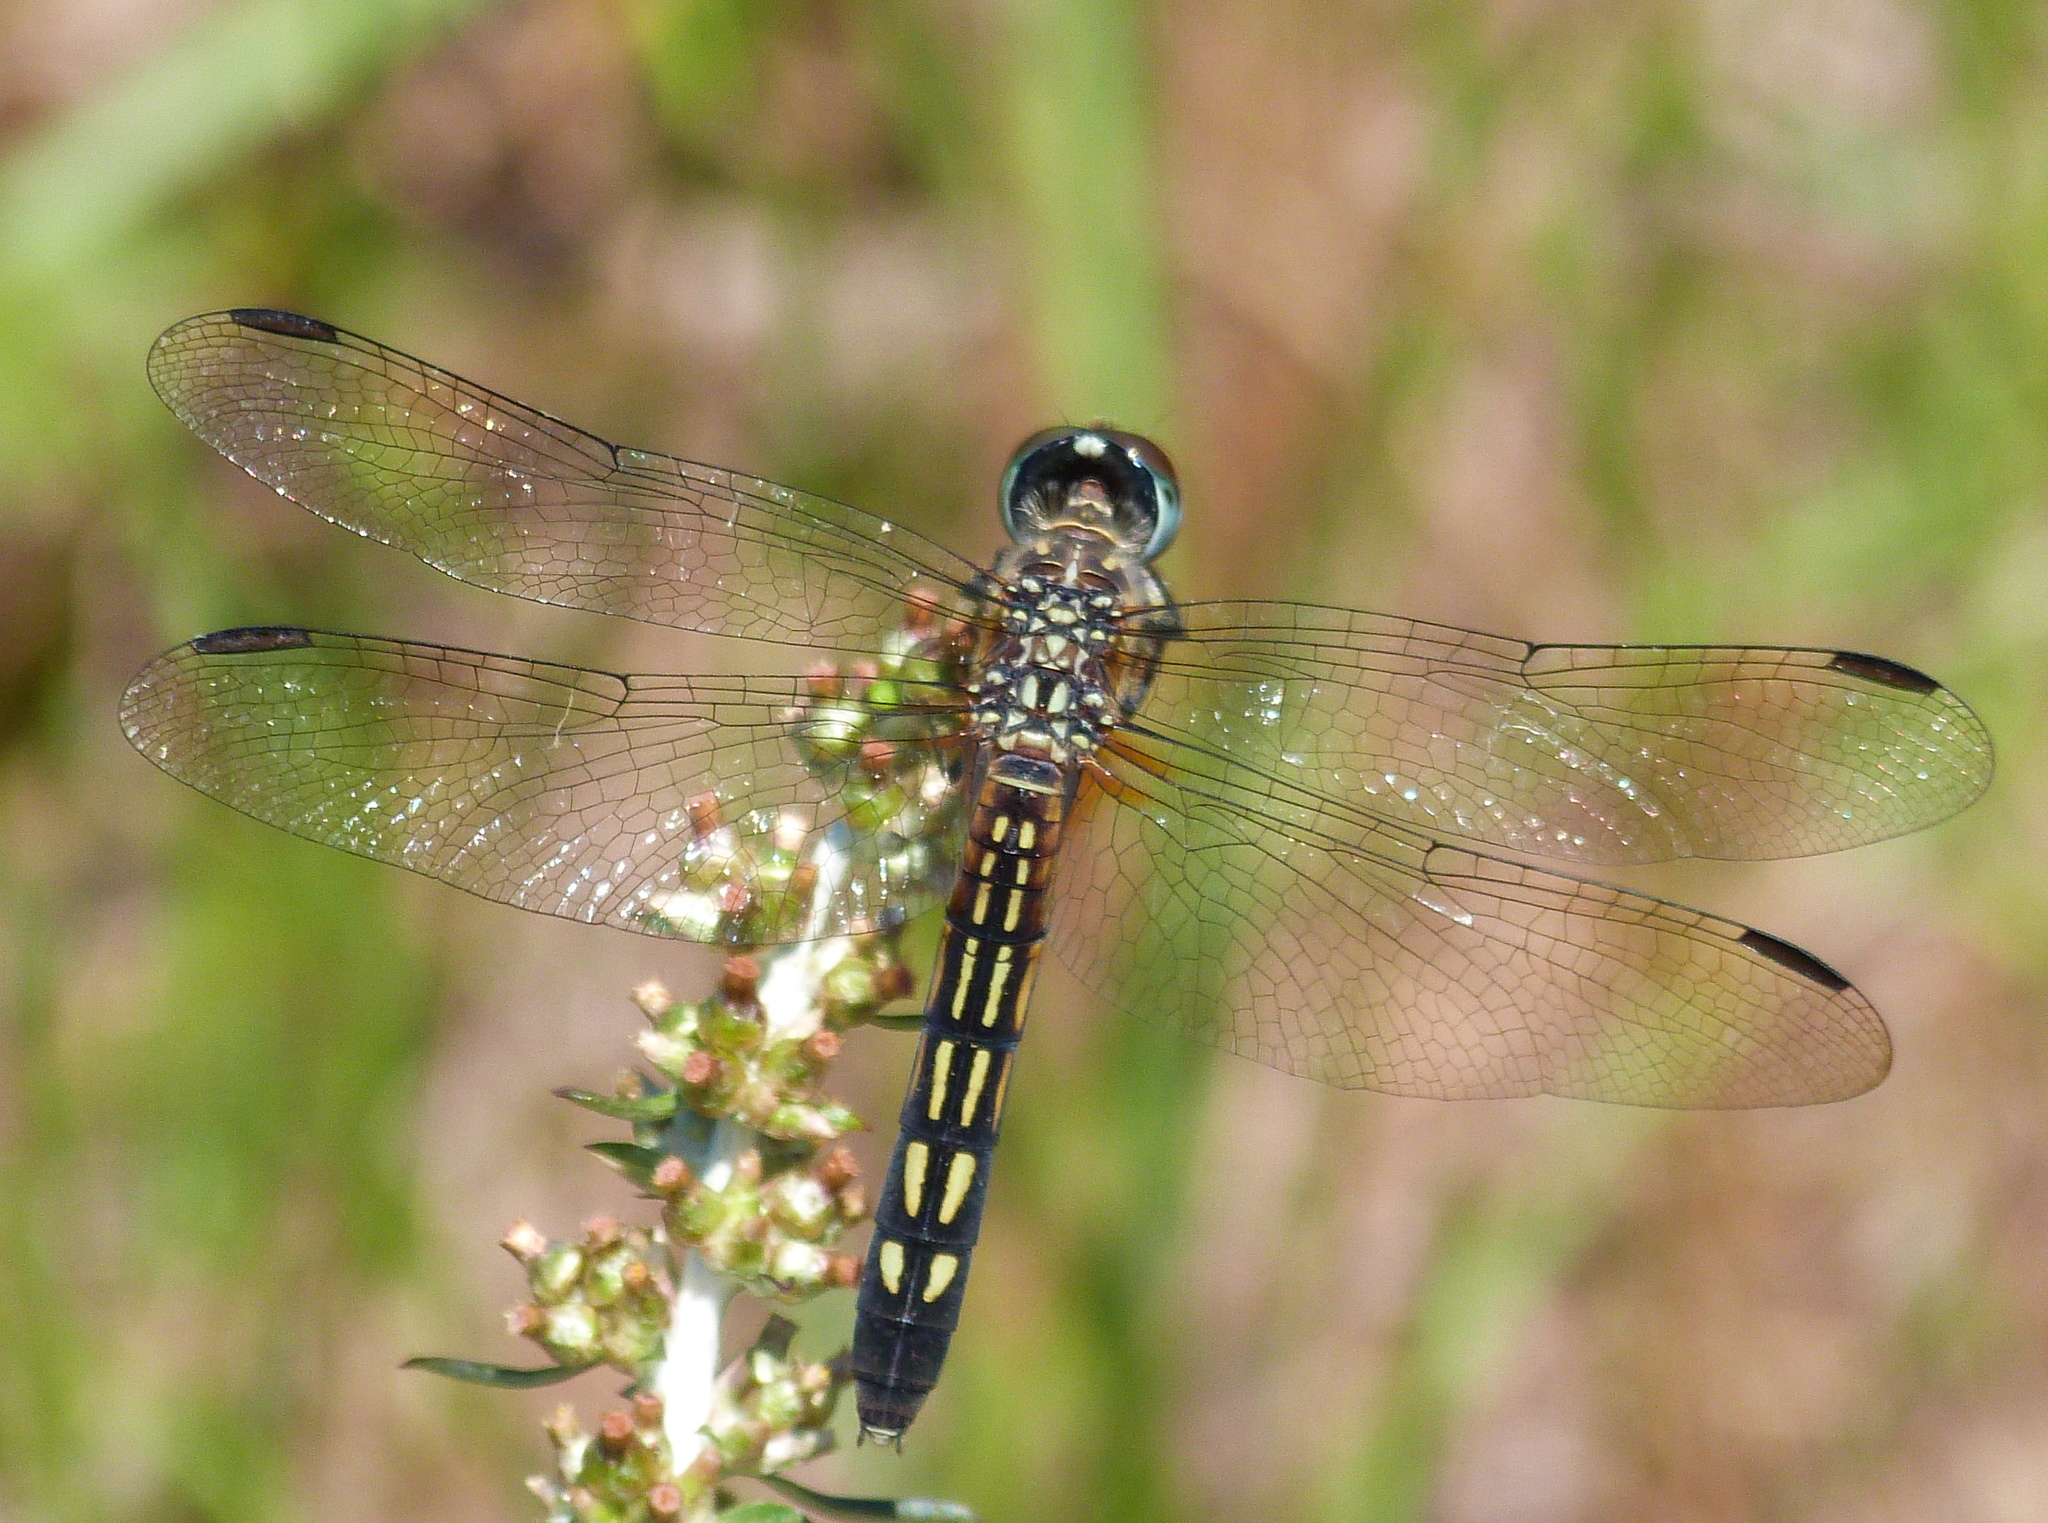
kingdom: Animalia
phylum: Arthropoda
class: Insecta
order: Odonata
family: Libellulidae
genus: Pachydiplax
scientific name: Pachydiplax longipennis
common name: Blue dasher
